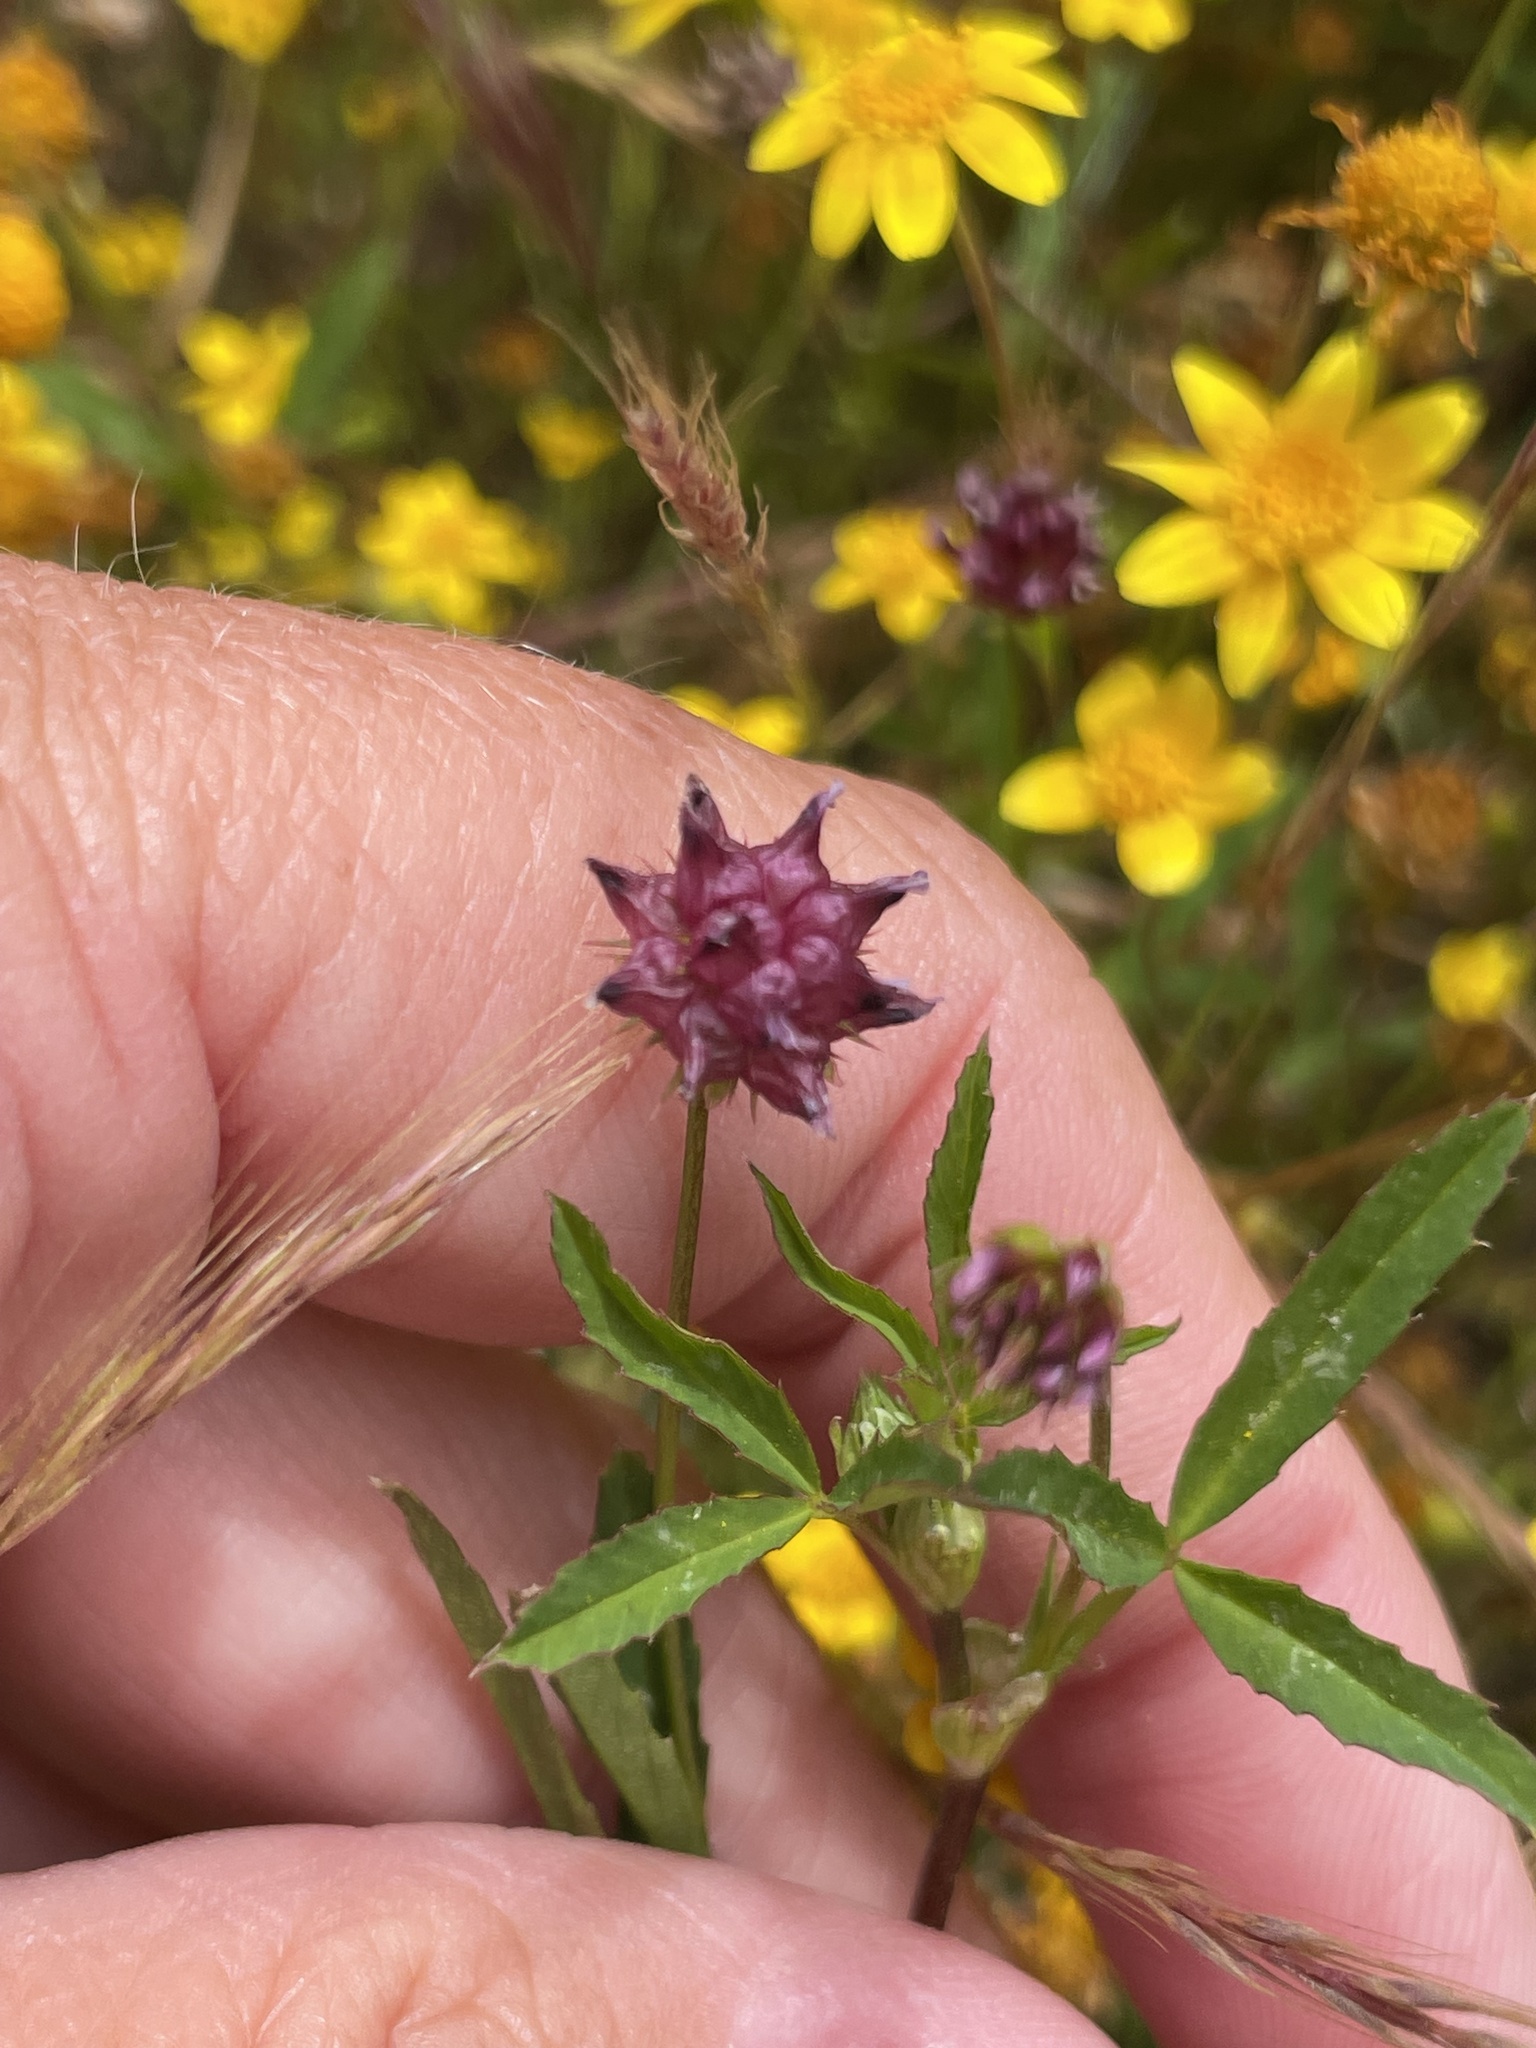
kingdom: Plantae
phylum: Tracheophyta
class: Magnoliopsida
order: Fabales
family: Fabaceae
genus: Trifolium
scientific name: Trifolium depauperatum
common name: Poverty clover
